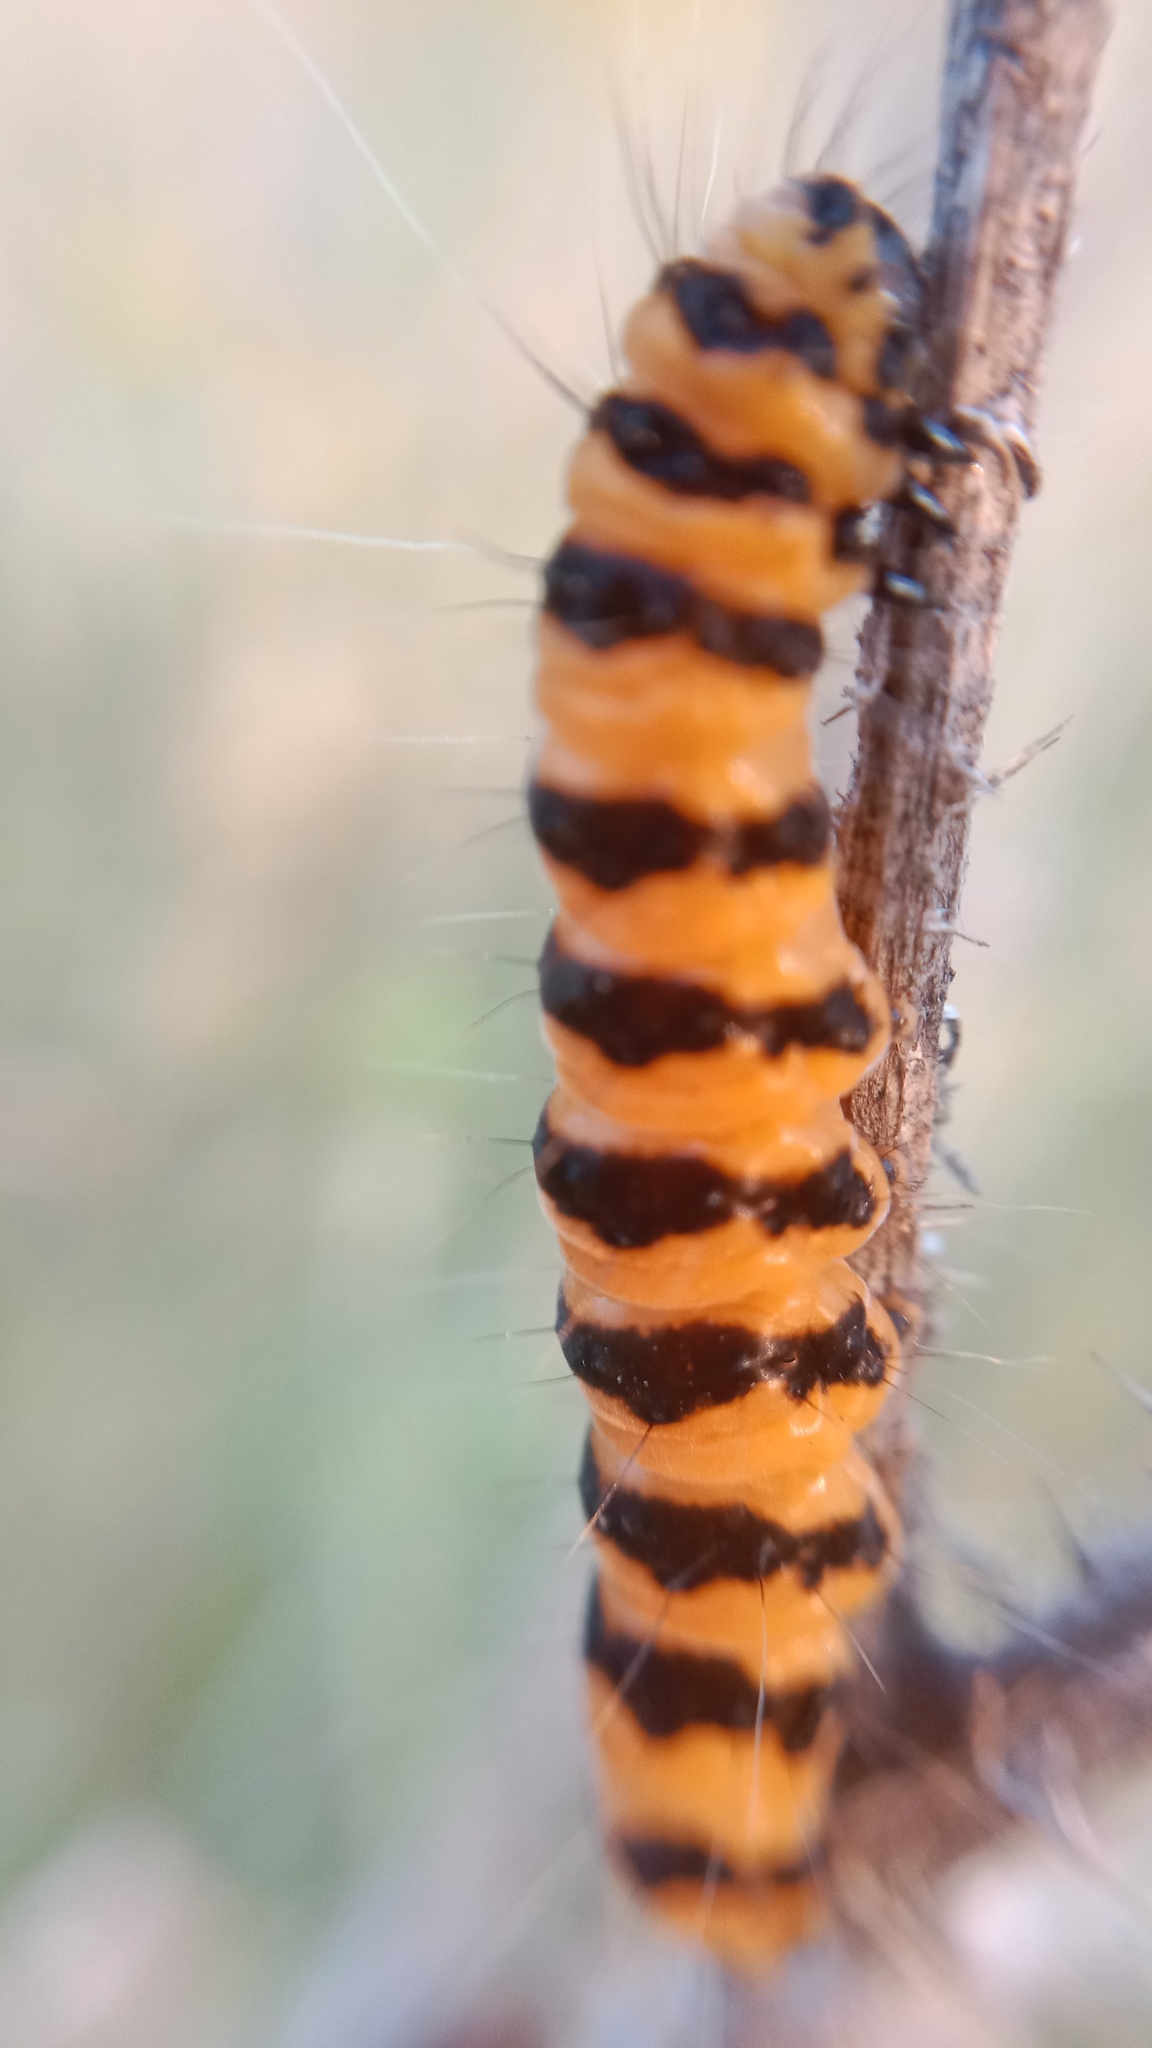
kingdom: Animalia
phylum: Arthropoda
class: Insecta
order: Lepidoptera
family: Erebidae
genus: Tyria
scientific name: Tyria jacobaeae
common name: Cinnabar
